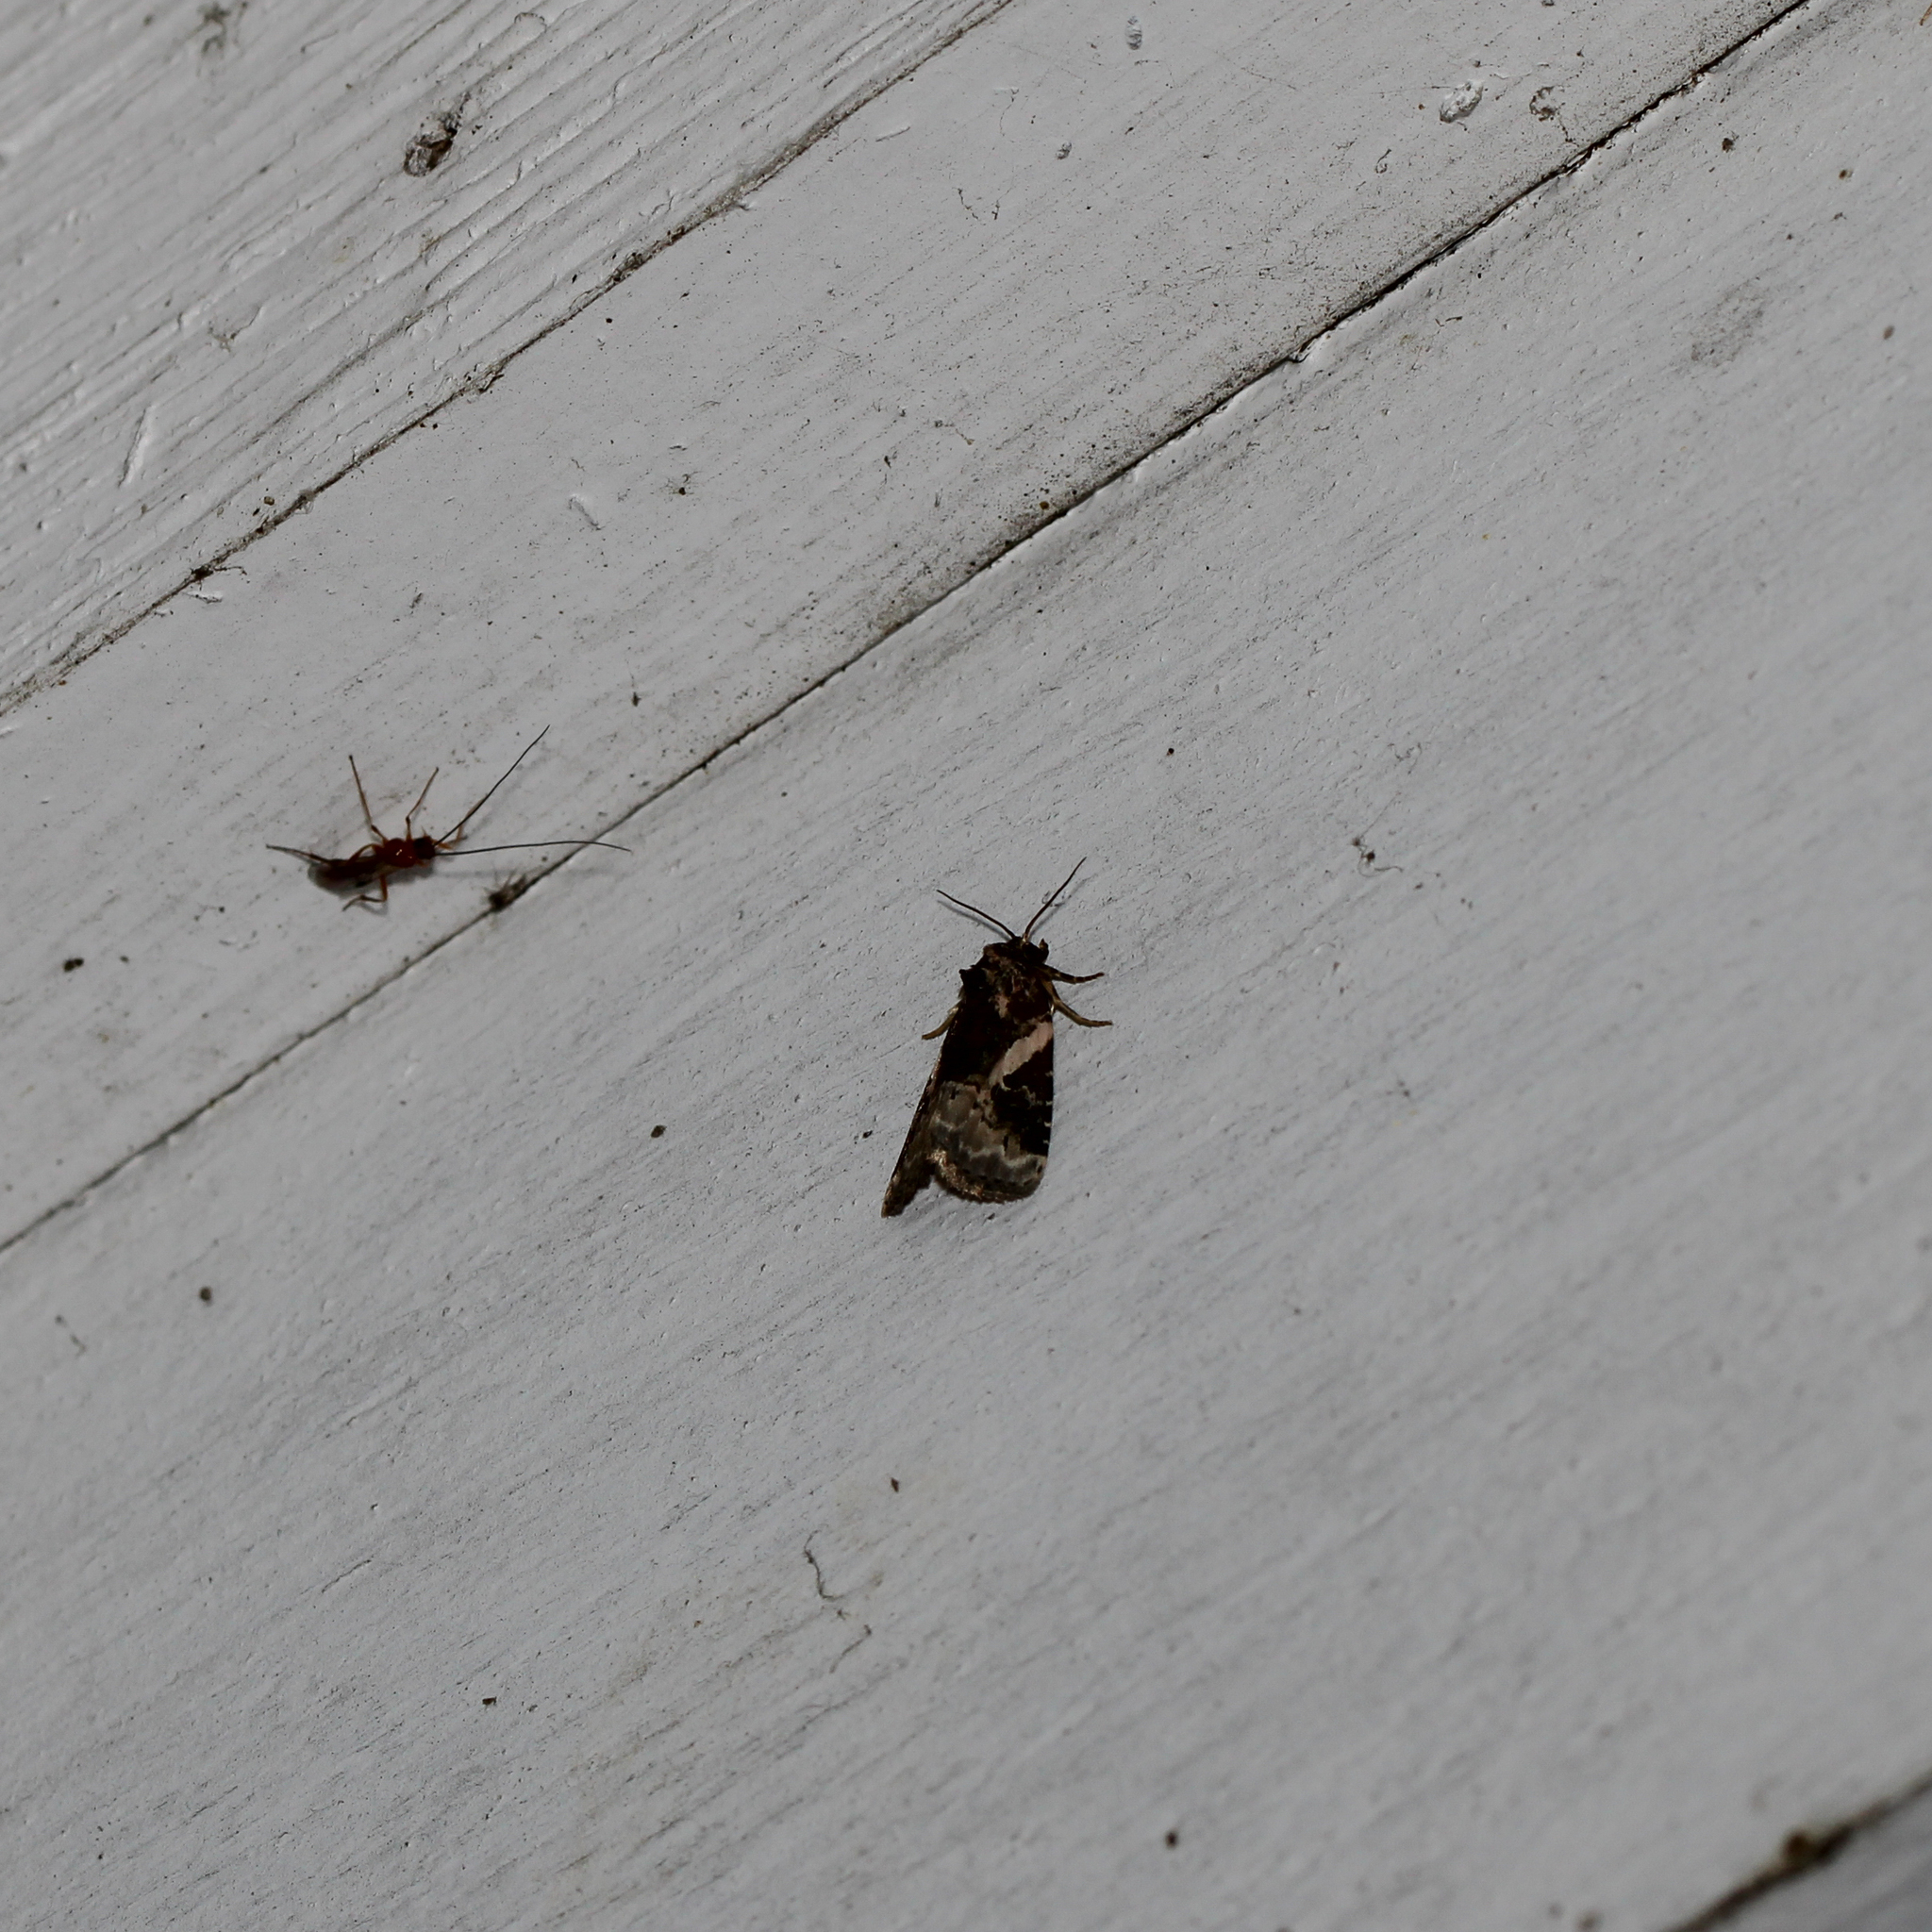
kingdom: Animalia
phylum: Arthropoda
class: Insecta
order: Lepidoptera
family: Noctuidae
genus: Pseudeustrotia
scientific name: Pseudeustrotia carneola
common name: Pink-barred lithacodia moth
